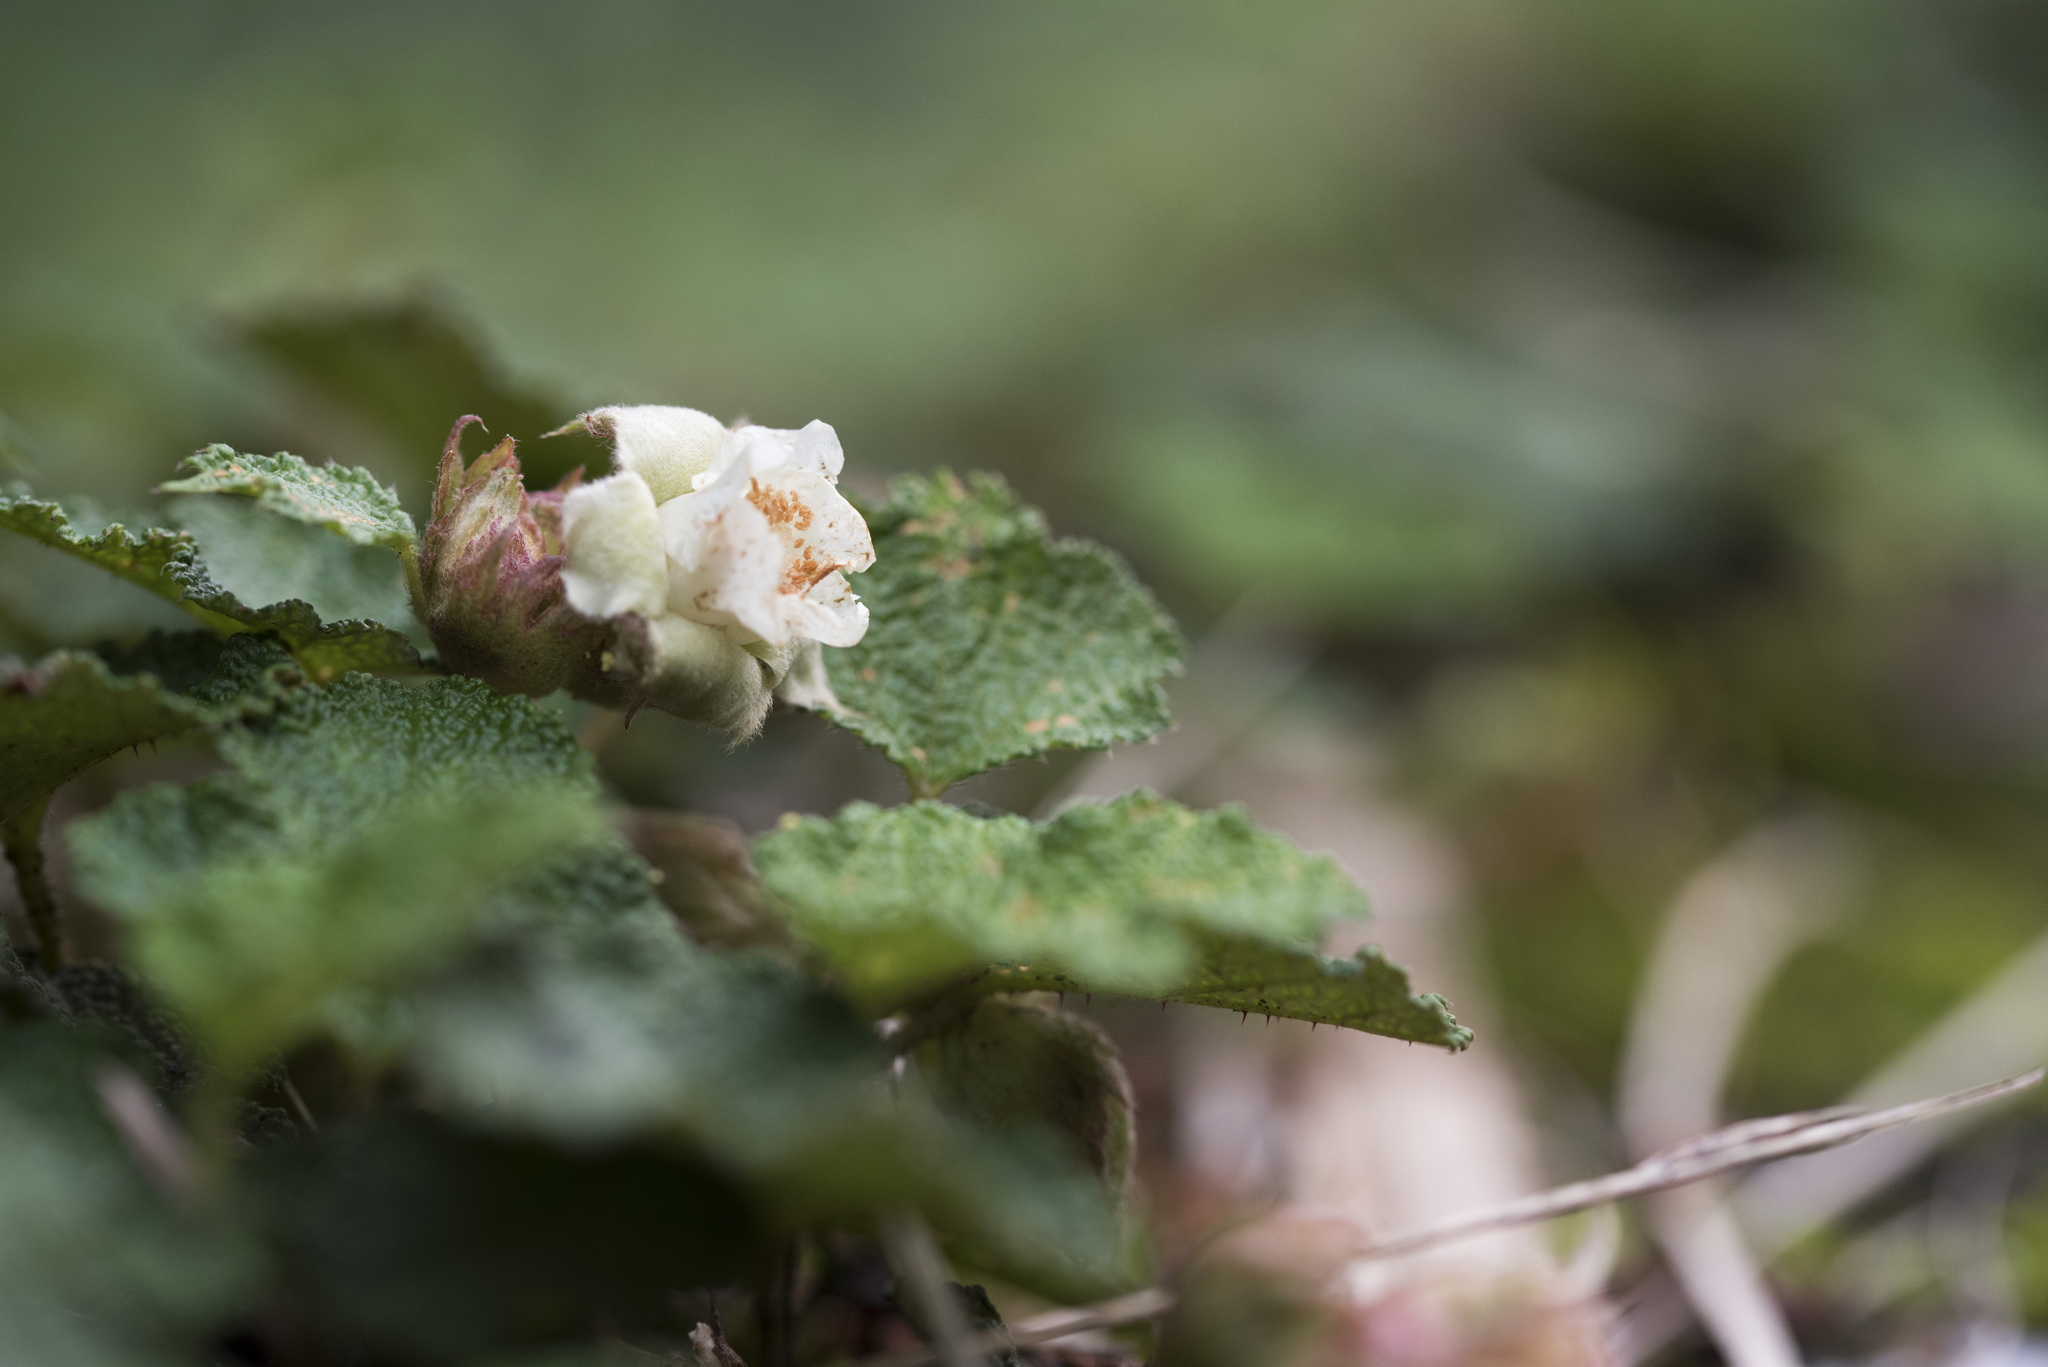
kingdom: Plantae
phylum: Tracheophyta
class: Magnoliopsida
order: Rosales
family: Rosaceae
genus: Rubus
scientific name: Rubus rolfei
